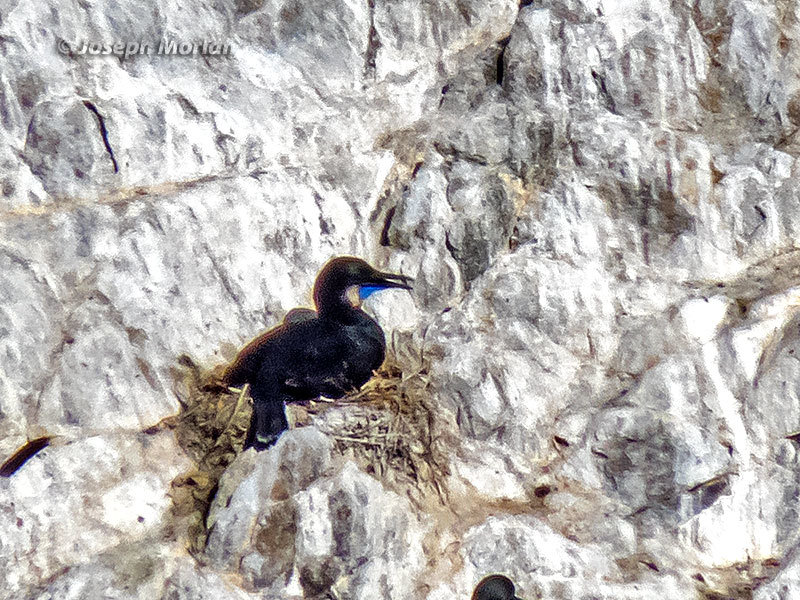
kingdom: Animalia
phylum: Chordata
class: Aves
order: Suliformes
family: Phalacrocoracidae
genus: Urile
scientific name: Urile penicillatus
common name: Brandt's cormorant
